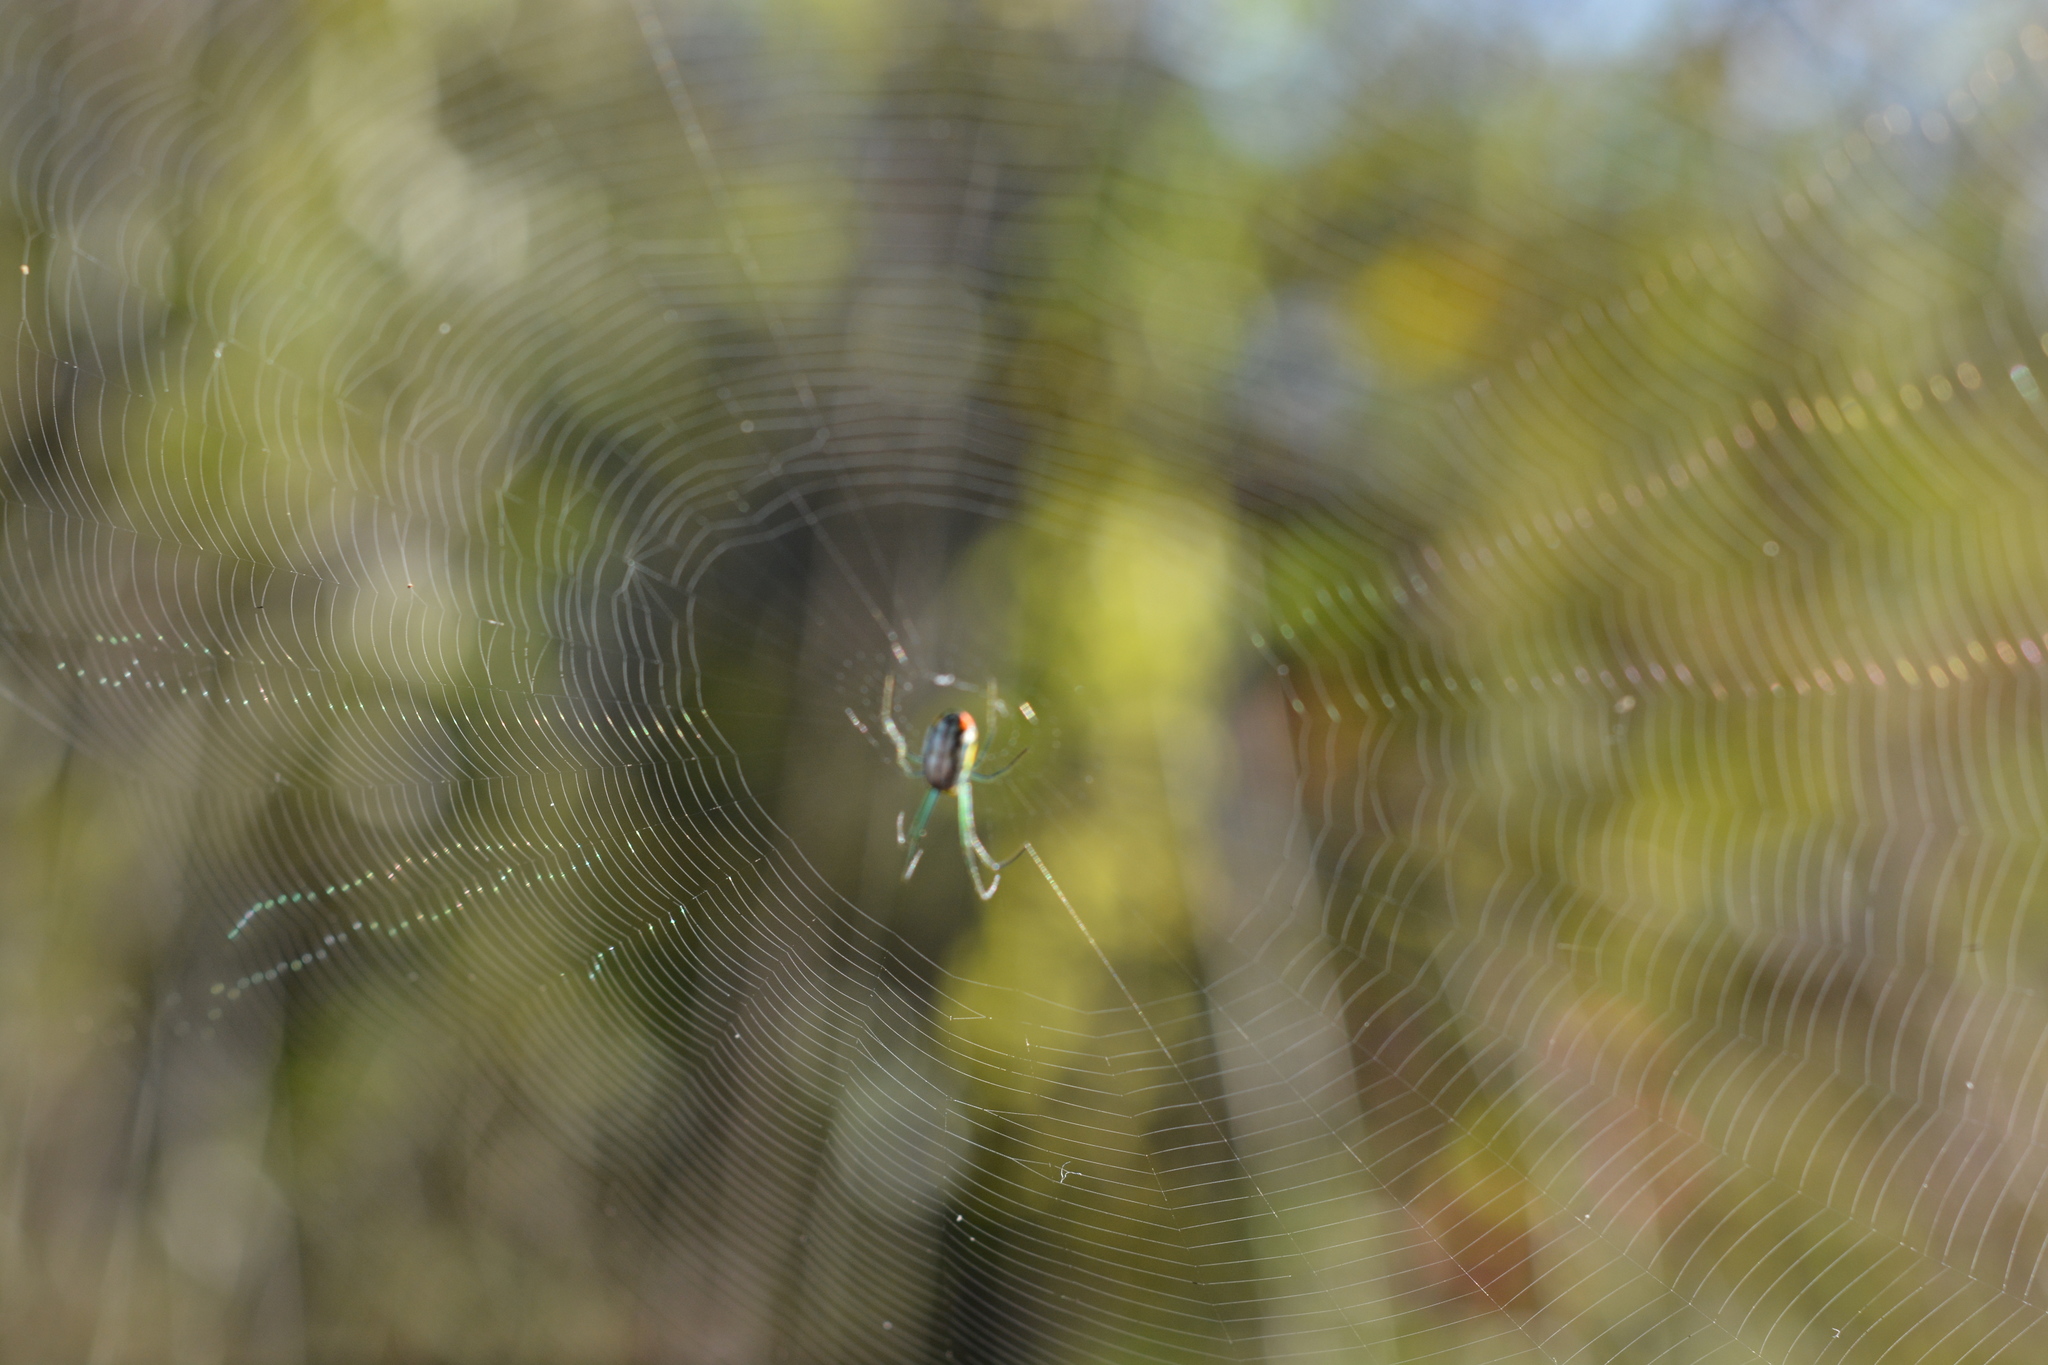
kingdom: Animalia
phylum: Arthropoda
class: Arachnida
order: Araneae
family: Tetragnathidae
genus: Leucauge
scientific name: Leucauge argyrobapta
